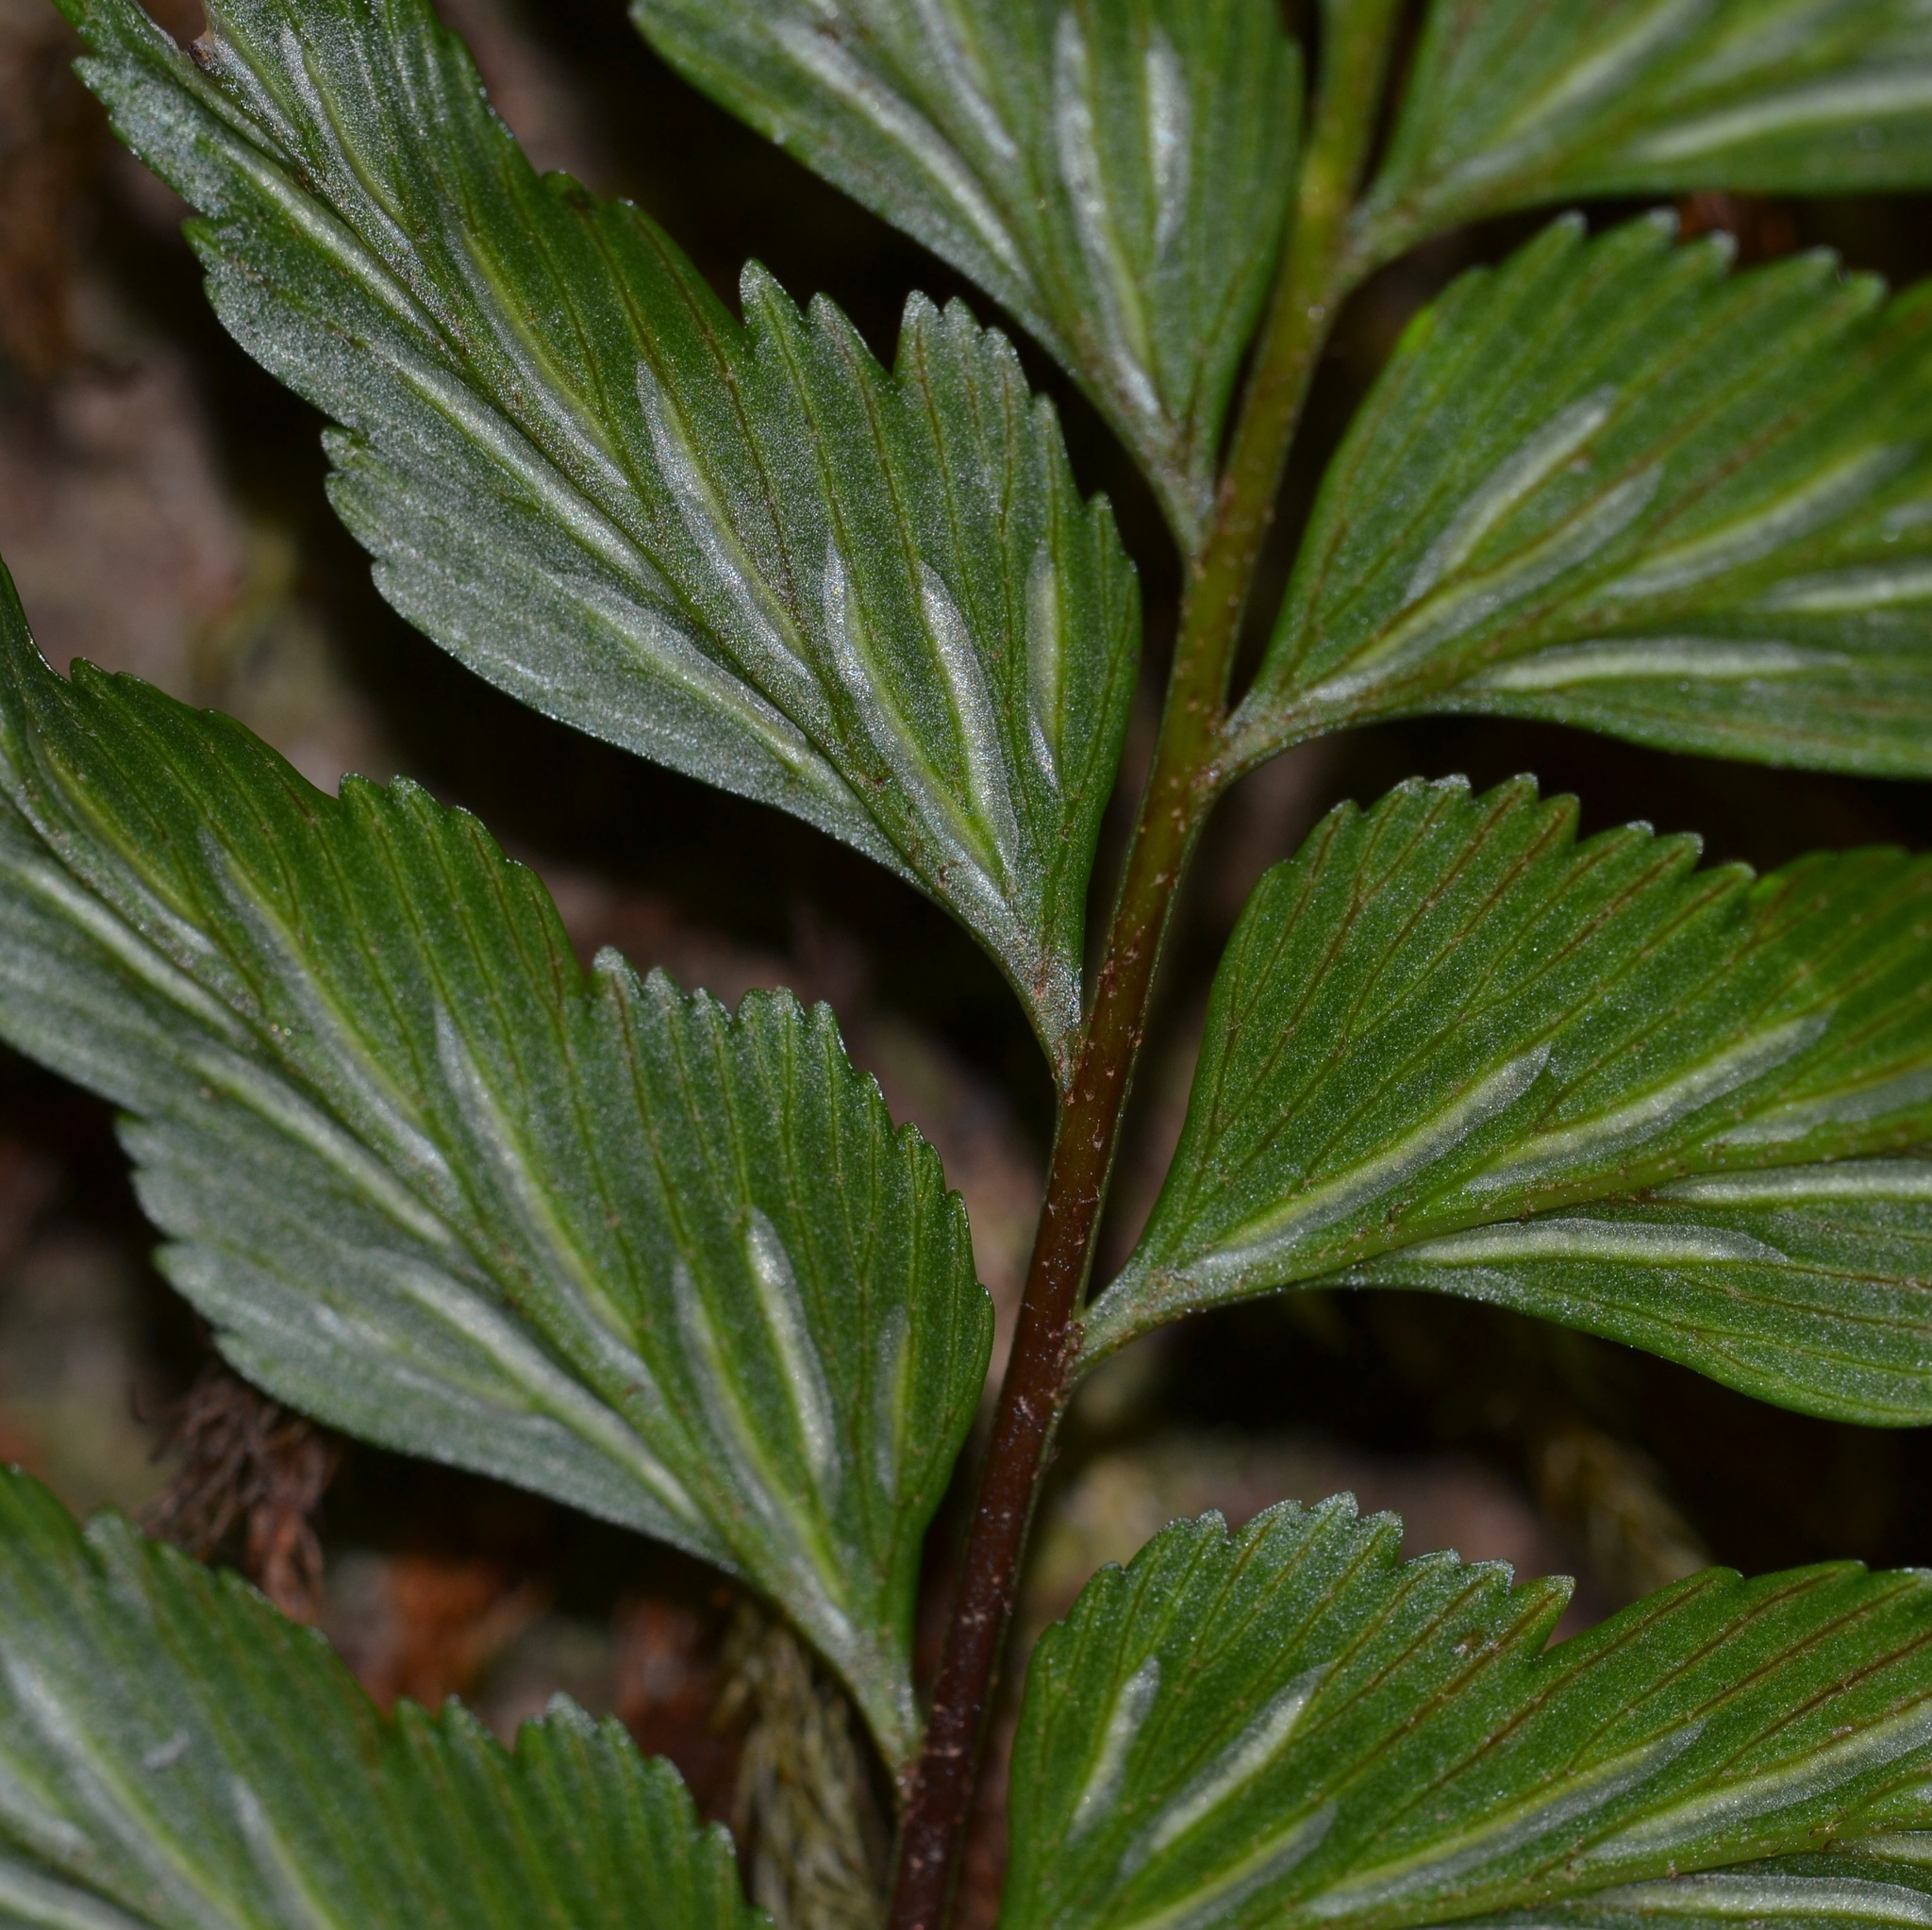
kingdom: Plantae
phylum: Tracheophyta
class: Polypodiopsida
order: Polypodiales
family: Aspleniaceae
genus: Hymenasplenium
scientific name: Hymenasplenium excisum
